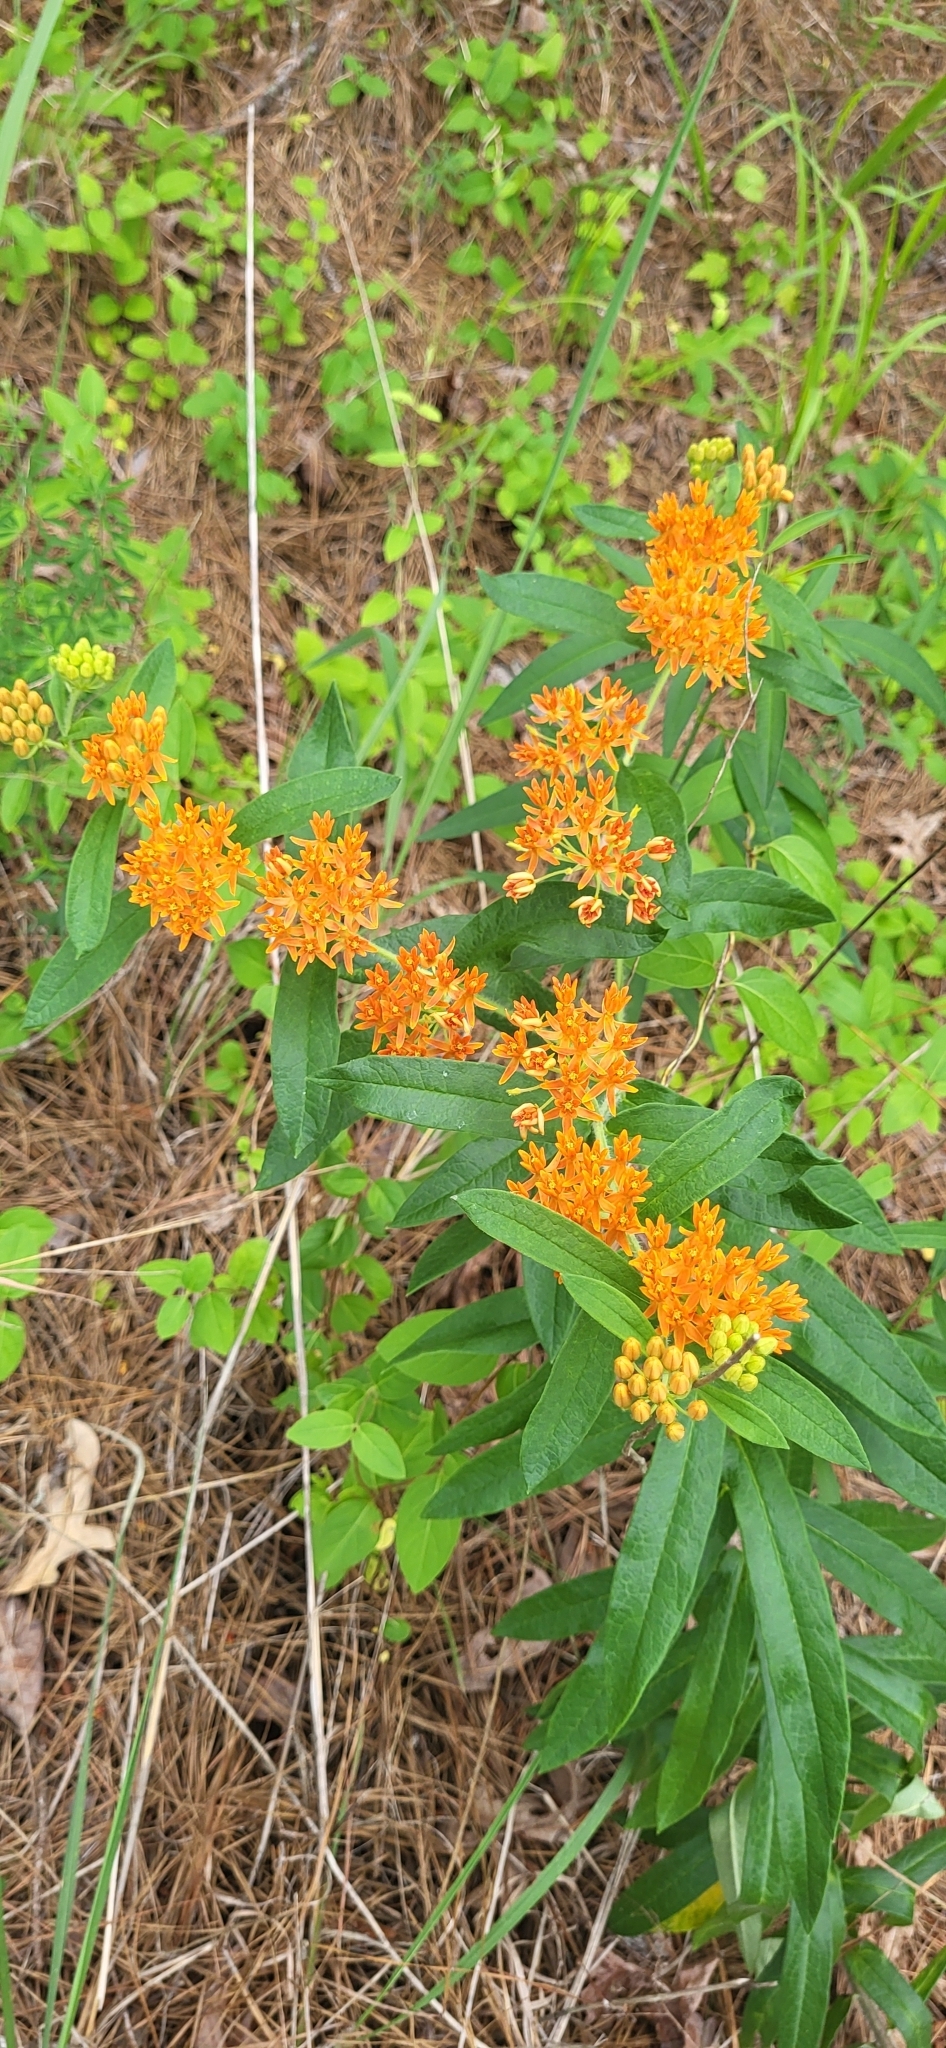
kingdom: Plantae
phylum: Tracheophyta
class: Magnoliopsida
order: Gentianales
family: Apocynaceae
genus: Asclepias
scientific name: Asclepias tuberosa
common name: Butterfly milkweed
